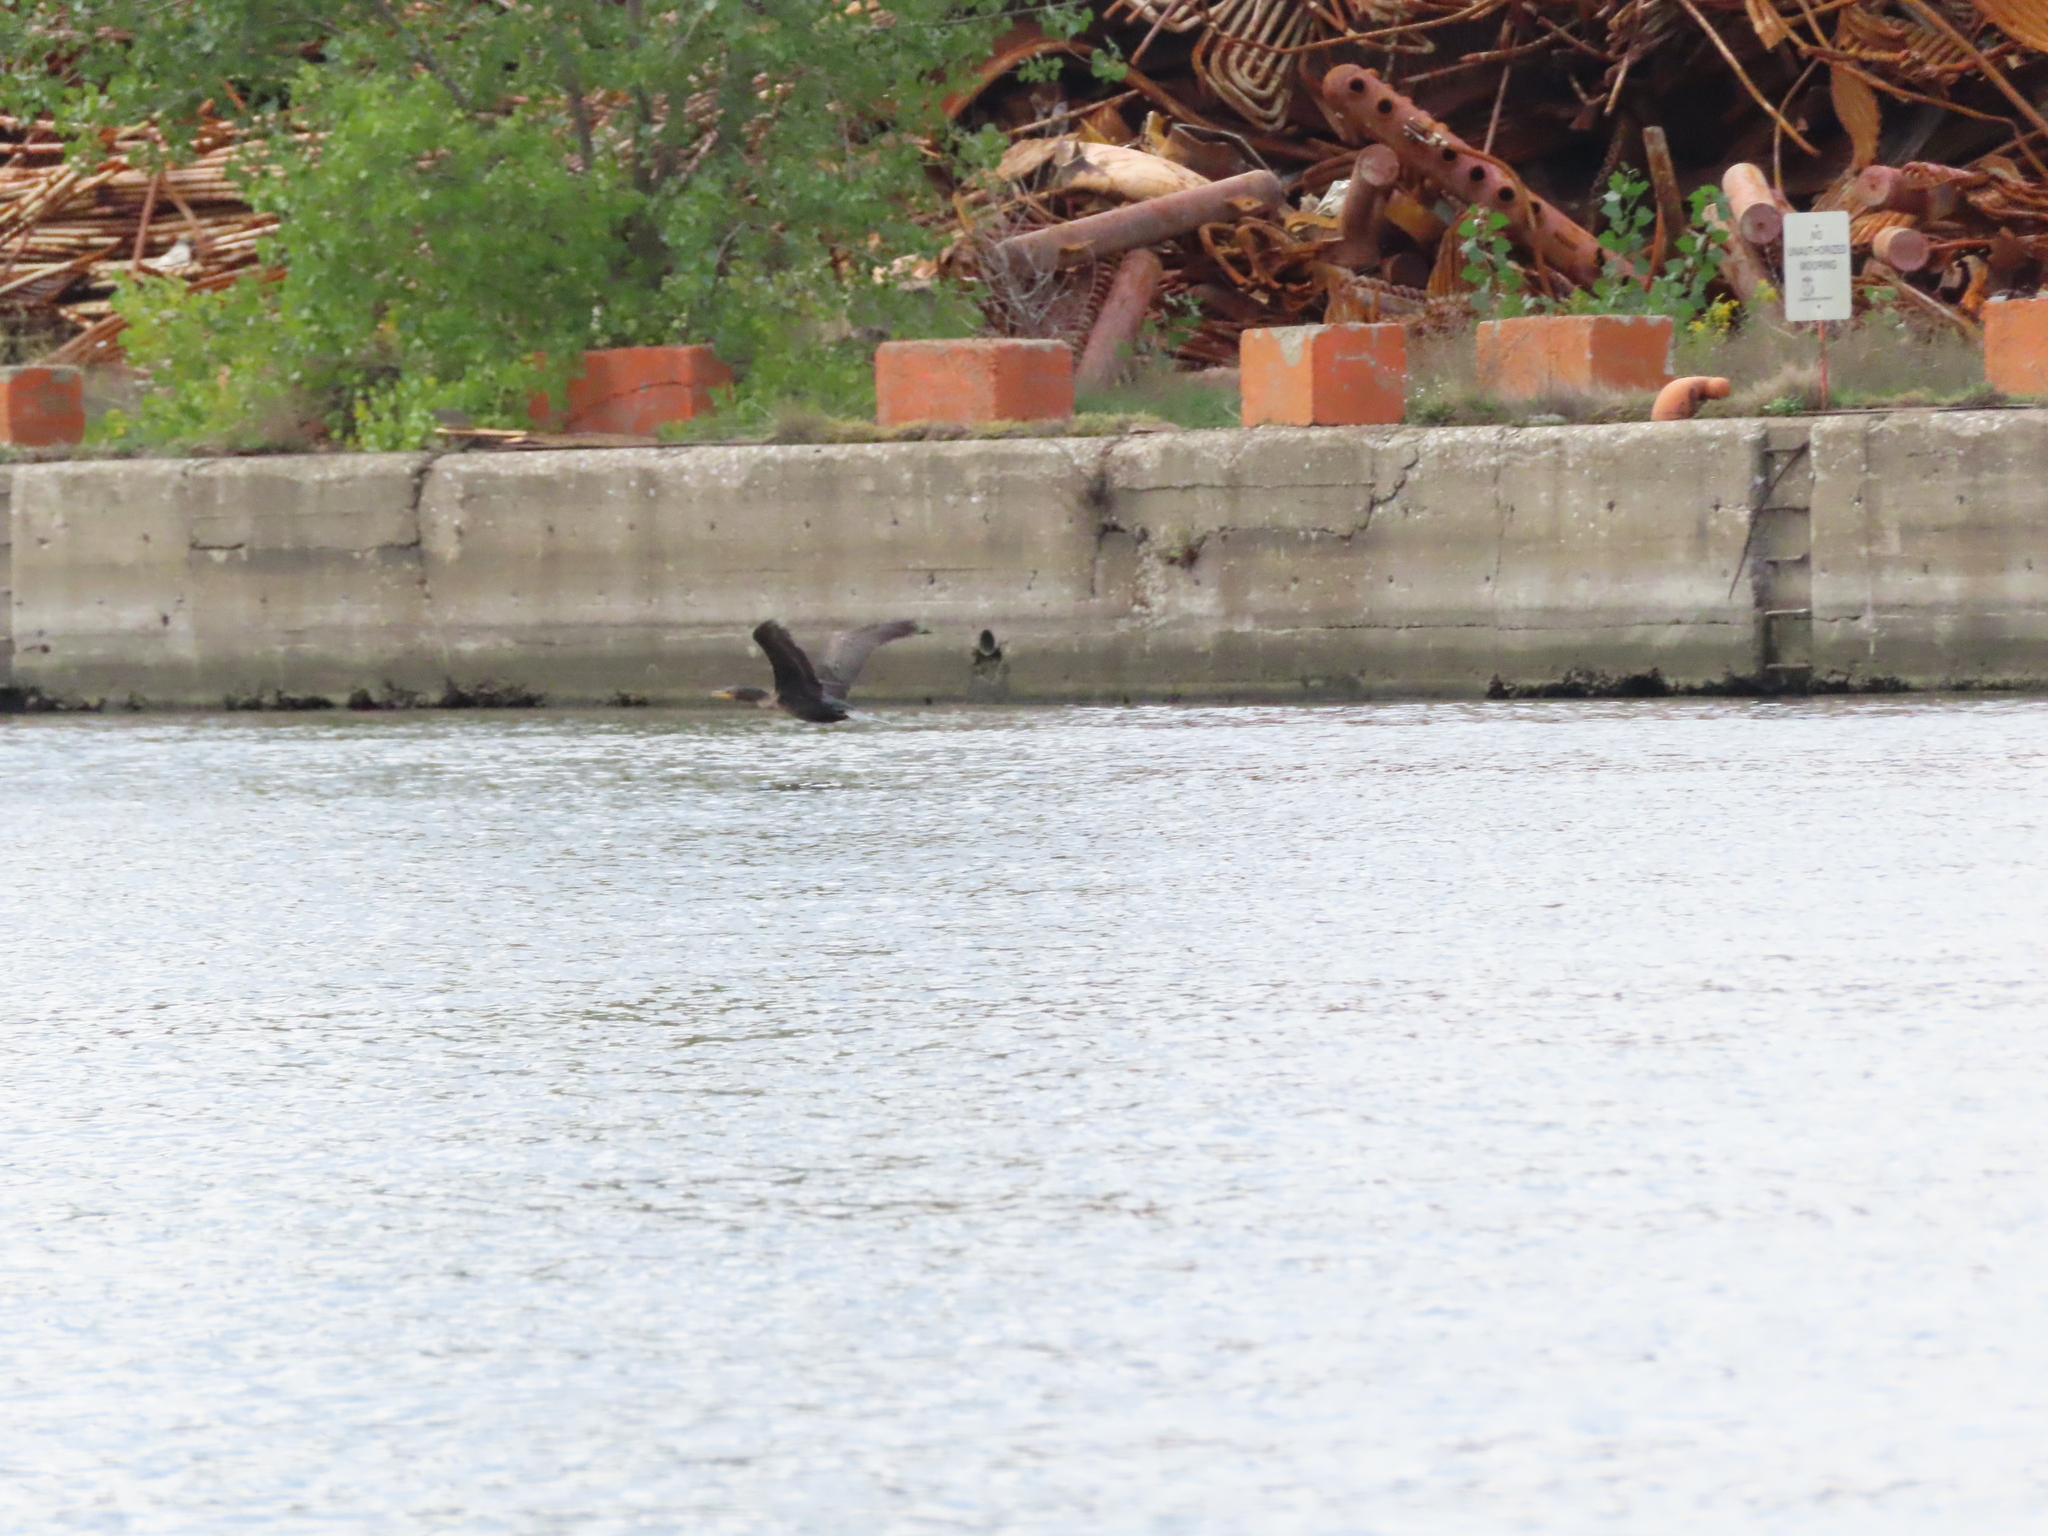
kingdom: Animalia
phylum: Chordata
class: Aves
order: Suliformes
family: Phalacrocoracidae
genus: Phalacrocorax
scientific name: Phalacrocorax auritus
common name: Double-crested cormorant
